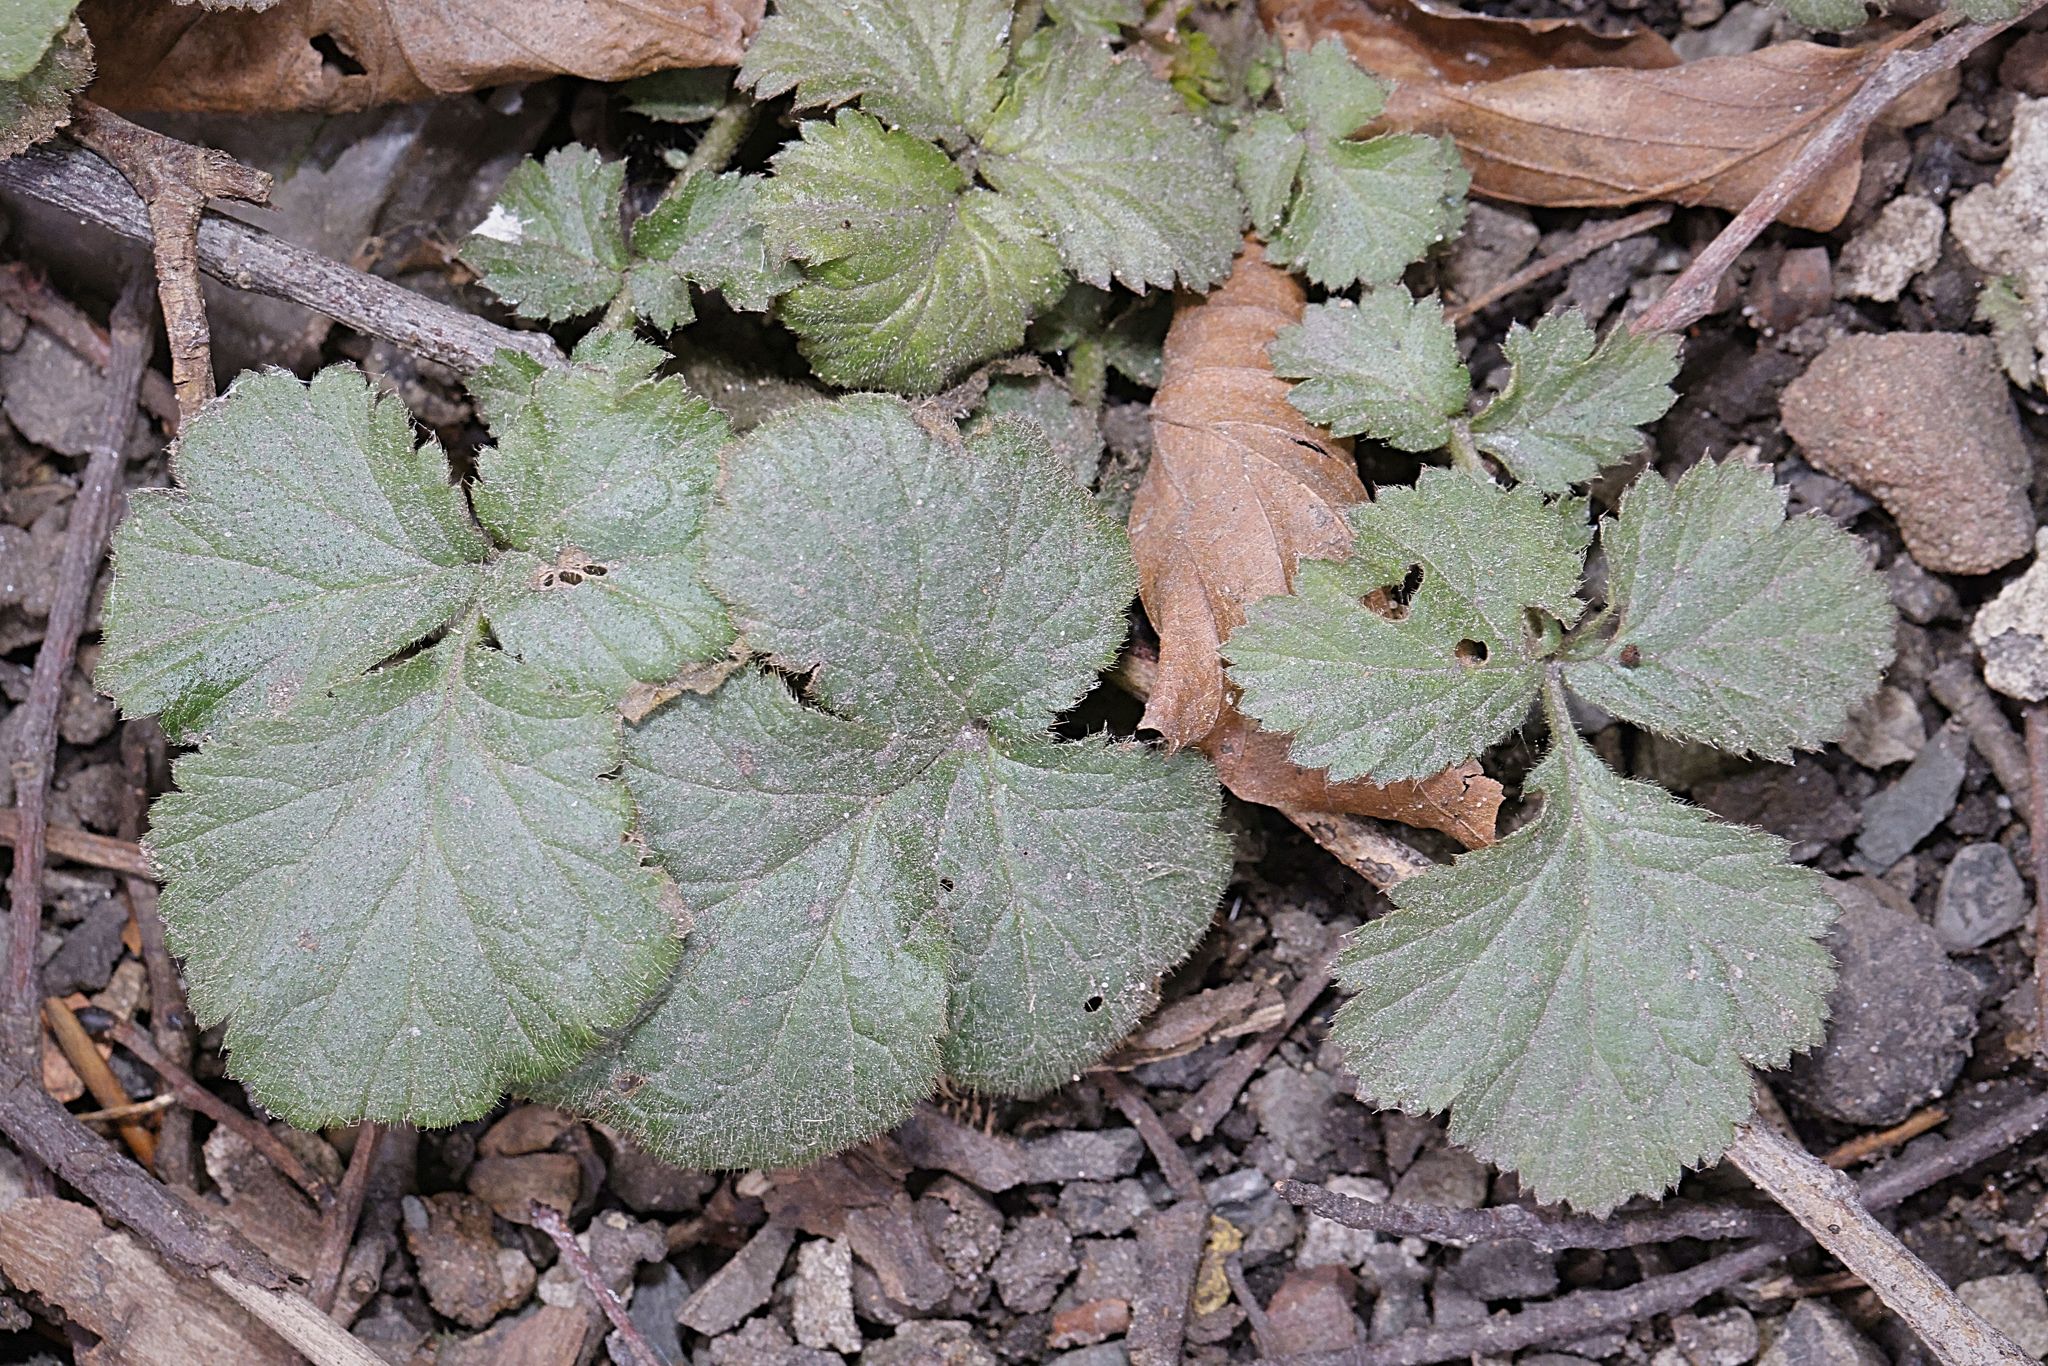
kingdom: Plantae
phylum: Tracheophyta
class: Magnoliopsida
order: Rosales
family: Rosaceae
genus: Geum
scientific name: Geum urbanum
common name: Wood avens
